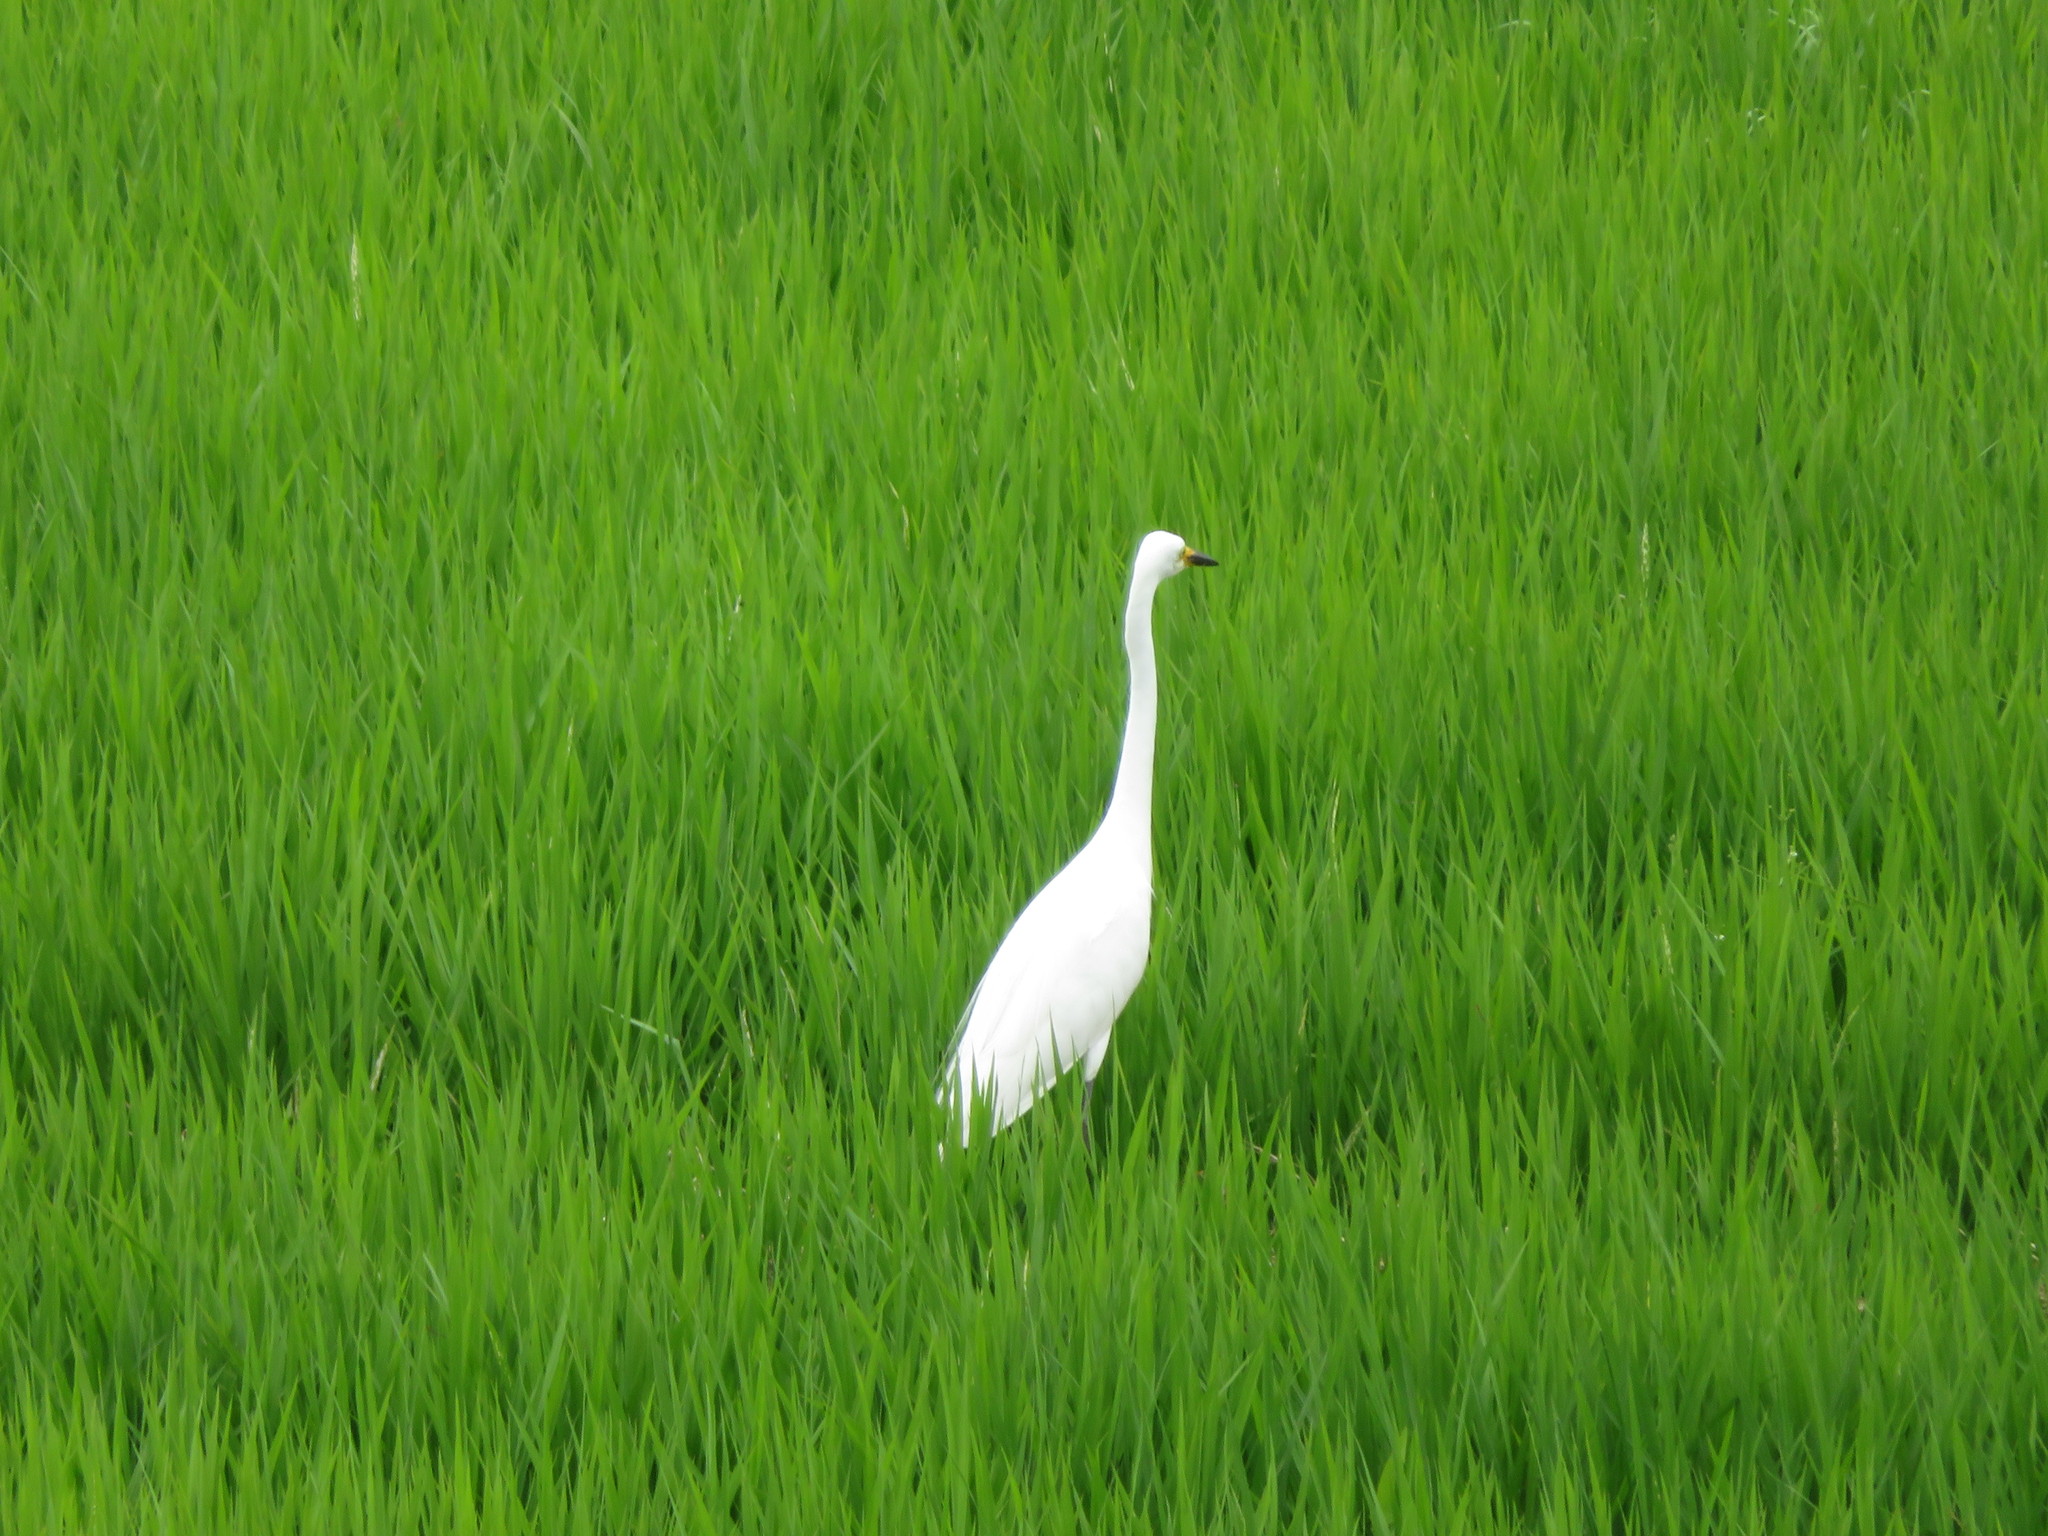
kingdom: Animalia
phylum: Chordata
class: Aves
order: Pelecaniformes
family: Ardeidae
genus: Egretta
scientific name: Egretta garzetta
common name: Little egret
